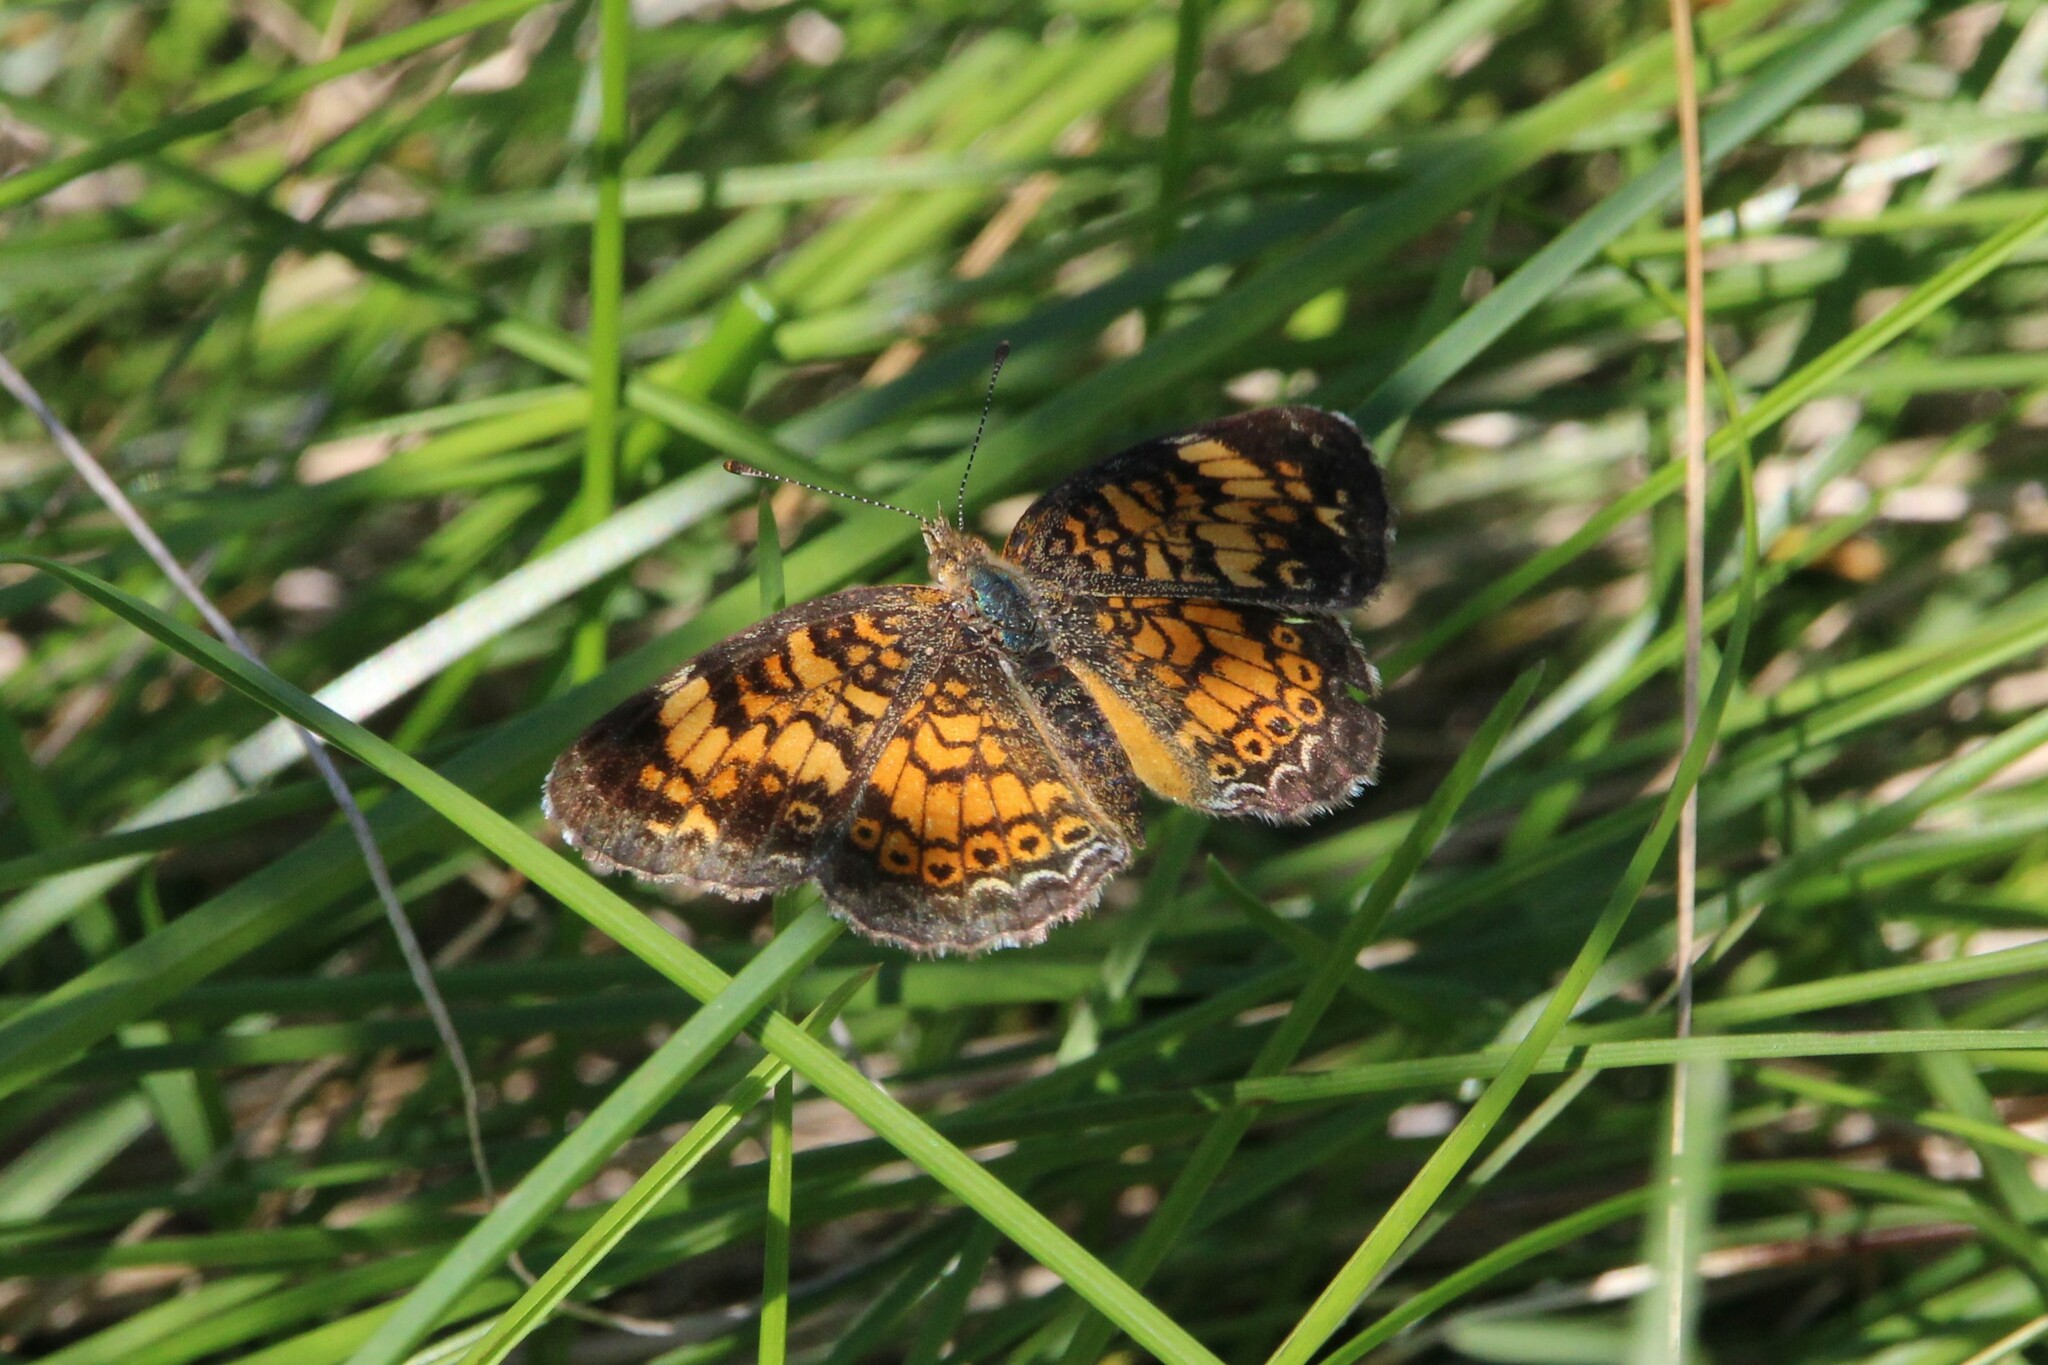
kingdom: Animalia
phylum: Arthropoda
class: Insecta
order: Lepidoptera
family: Nymphalidae
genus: Phyciodes
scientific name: Phyciodes tharos
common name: Pearl crescent
